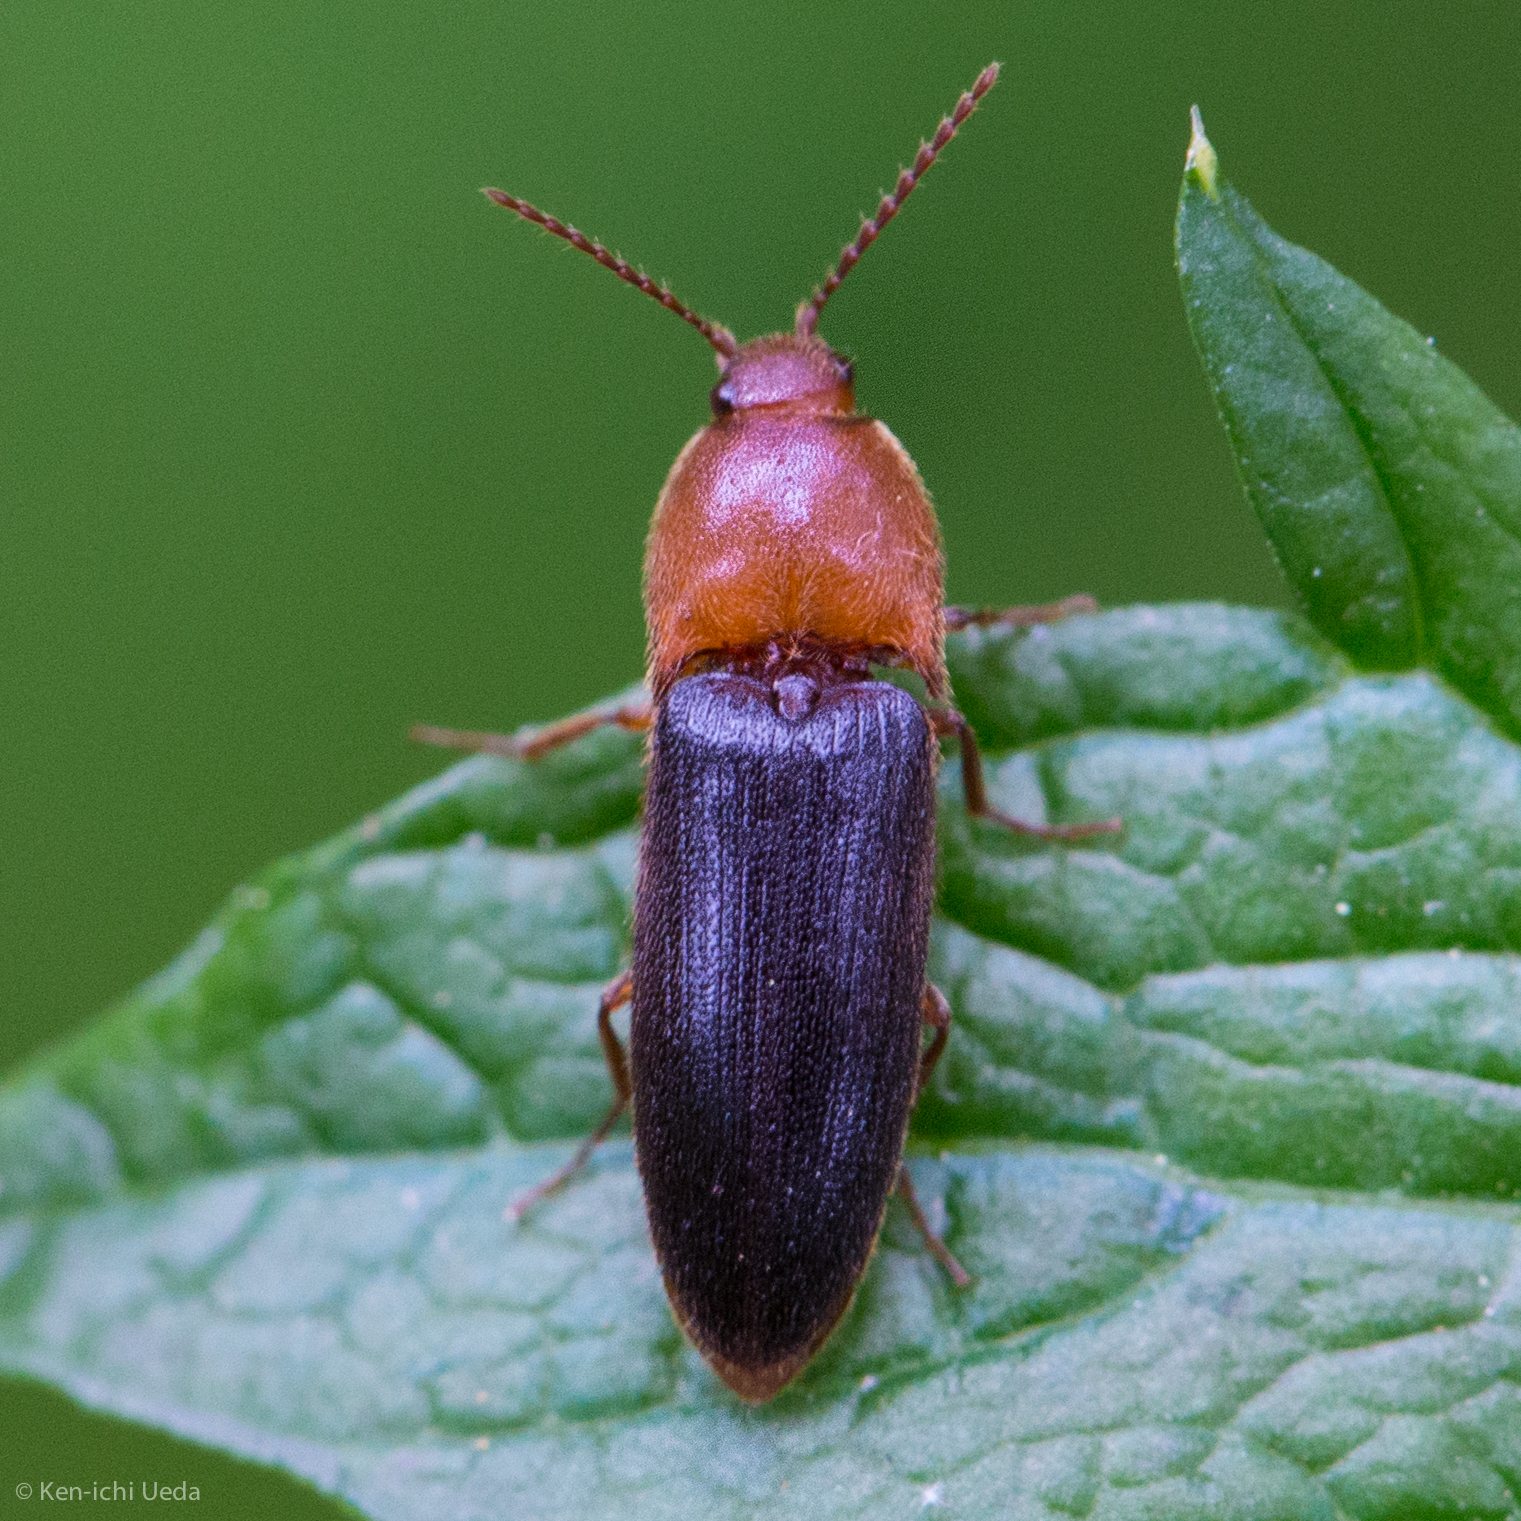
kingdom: Animalia
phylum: Arthropoda
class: Insecta
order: Coleoptera
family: Elateridae
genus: Ampedus
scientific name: Ampedus
